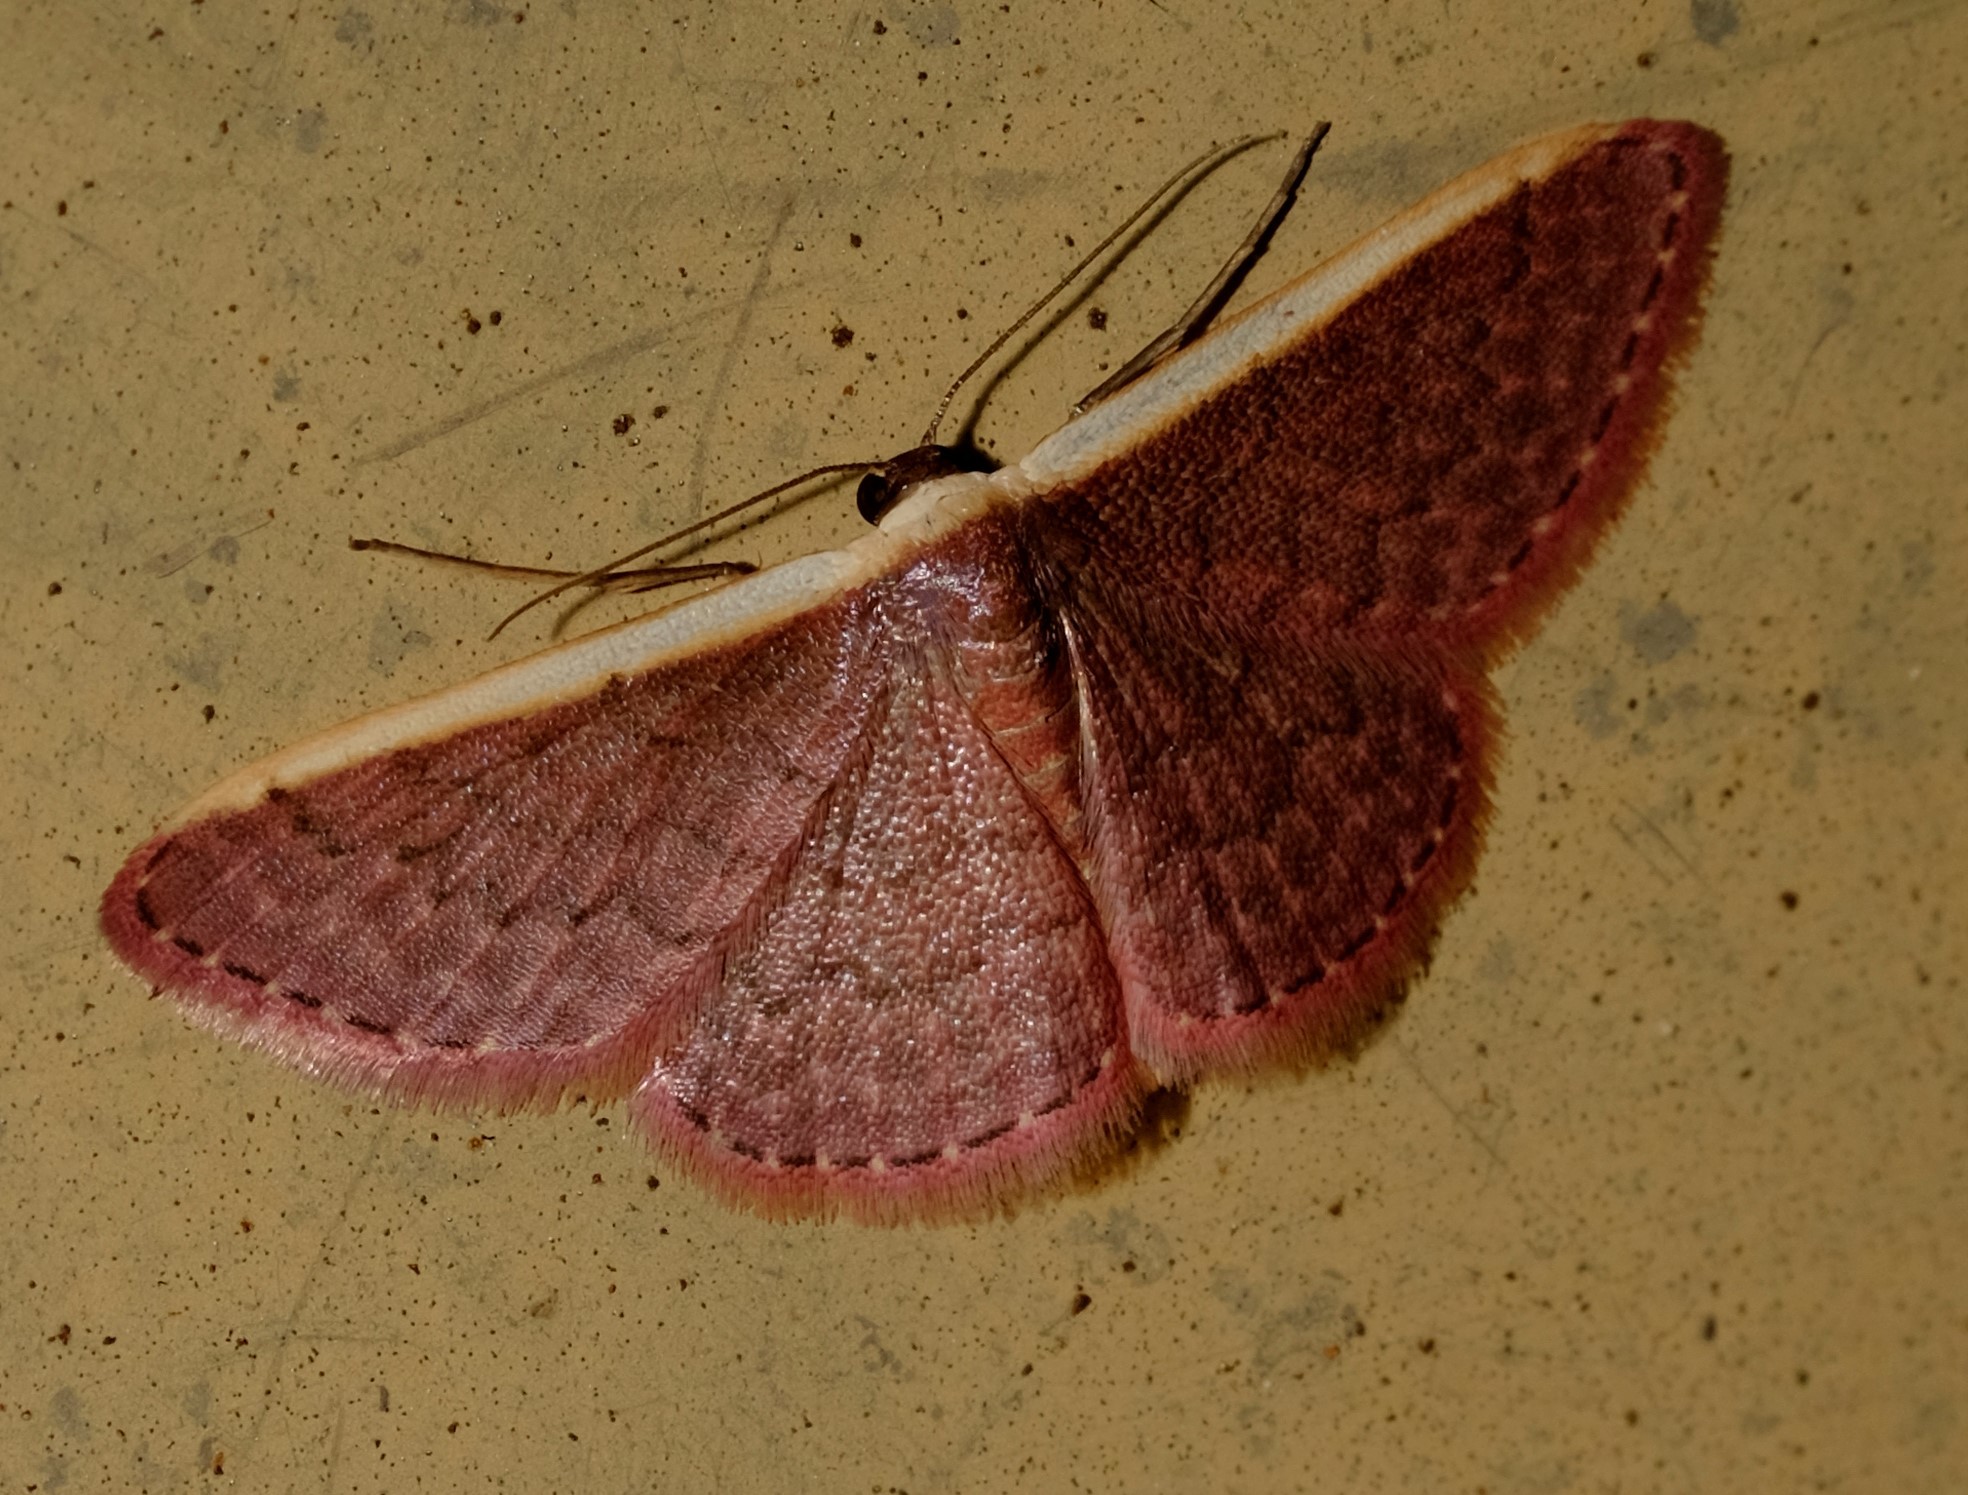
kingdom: Animalia
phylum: Arthropoda
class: Insecta
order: Lepidoptera
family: Geometridae
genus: Idaea
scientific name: Idaea inversata
